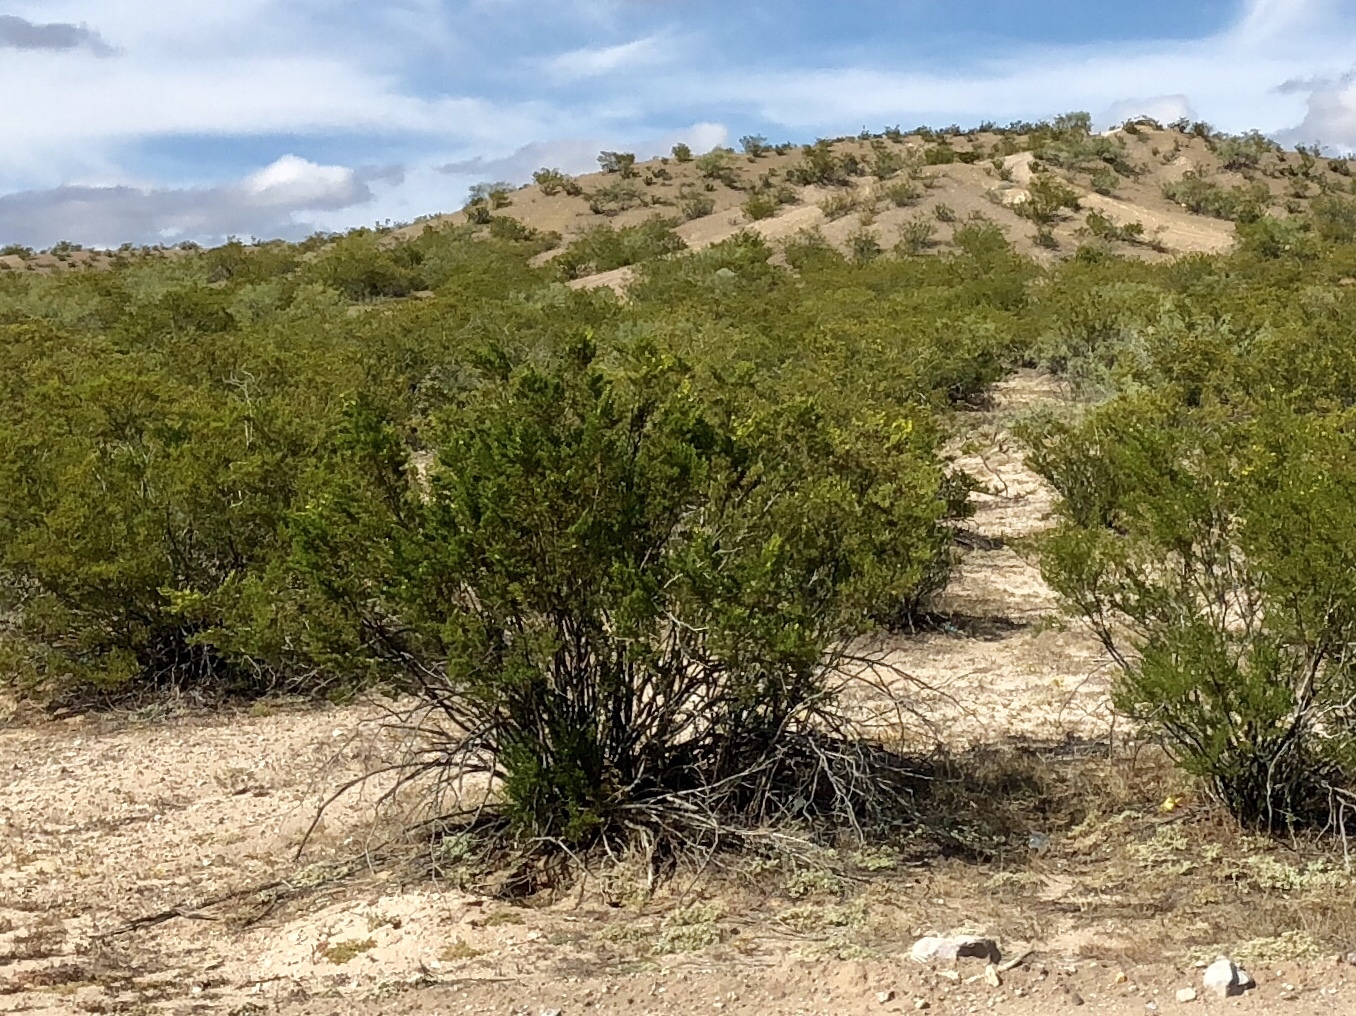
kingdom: Plantae
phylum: Tracheophyta
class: Magnoliopsida
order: Zygophyllales
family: Zygophyllaceae
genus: Larrea
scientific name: Larrea tridentata
